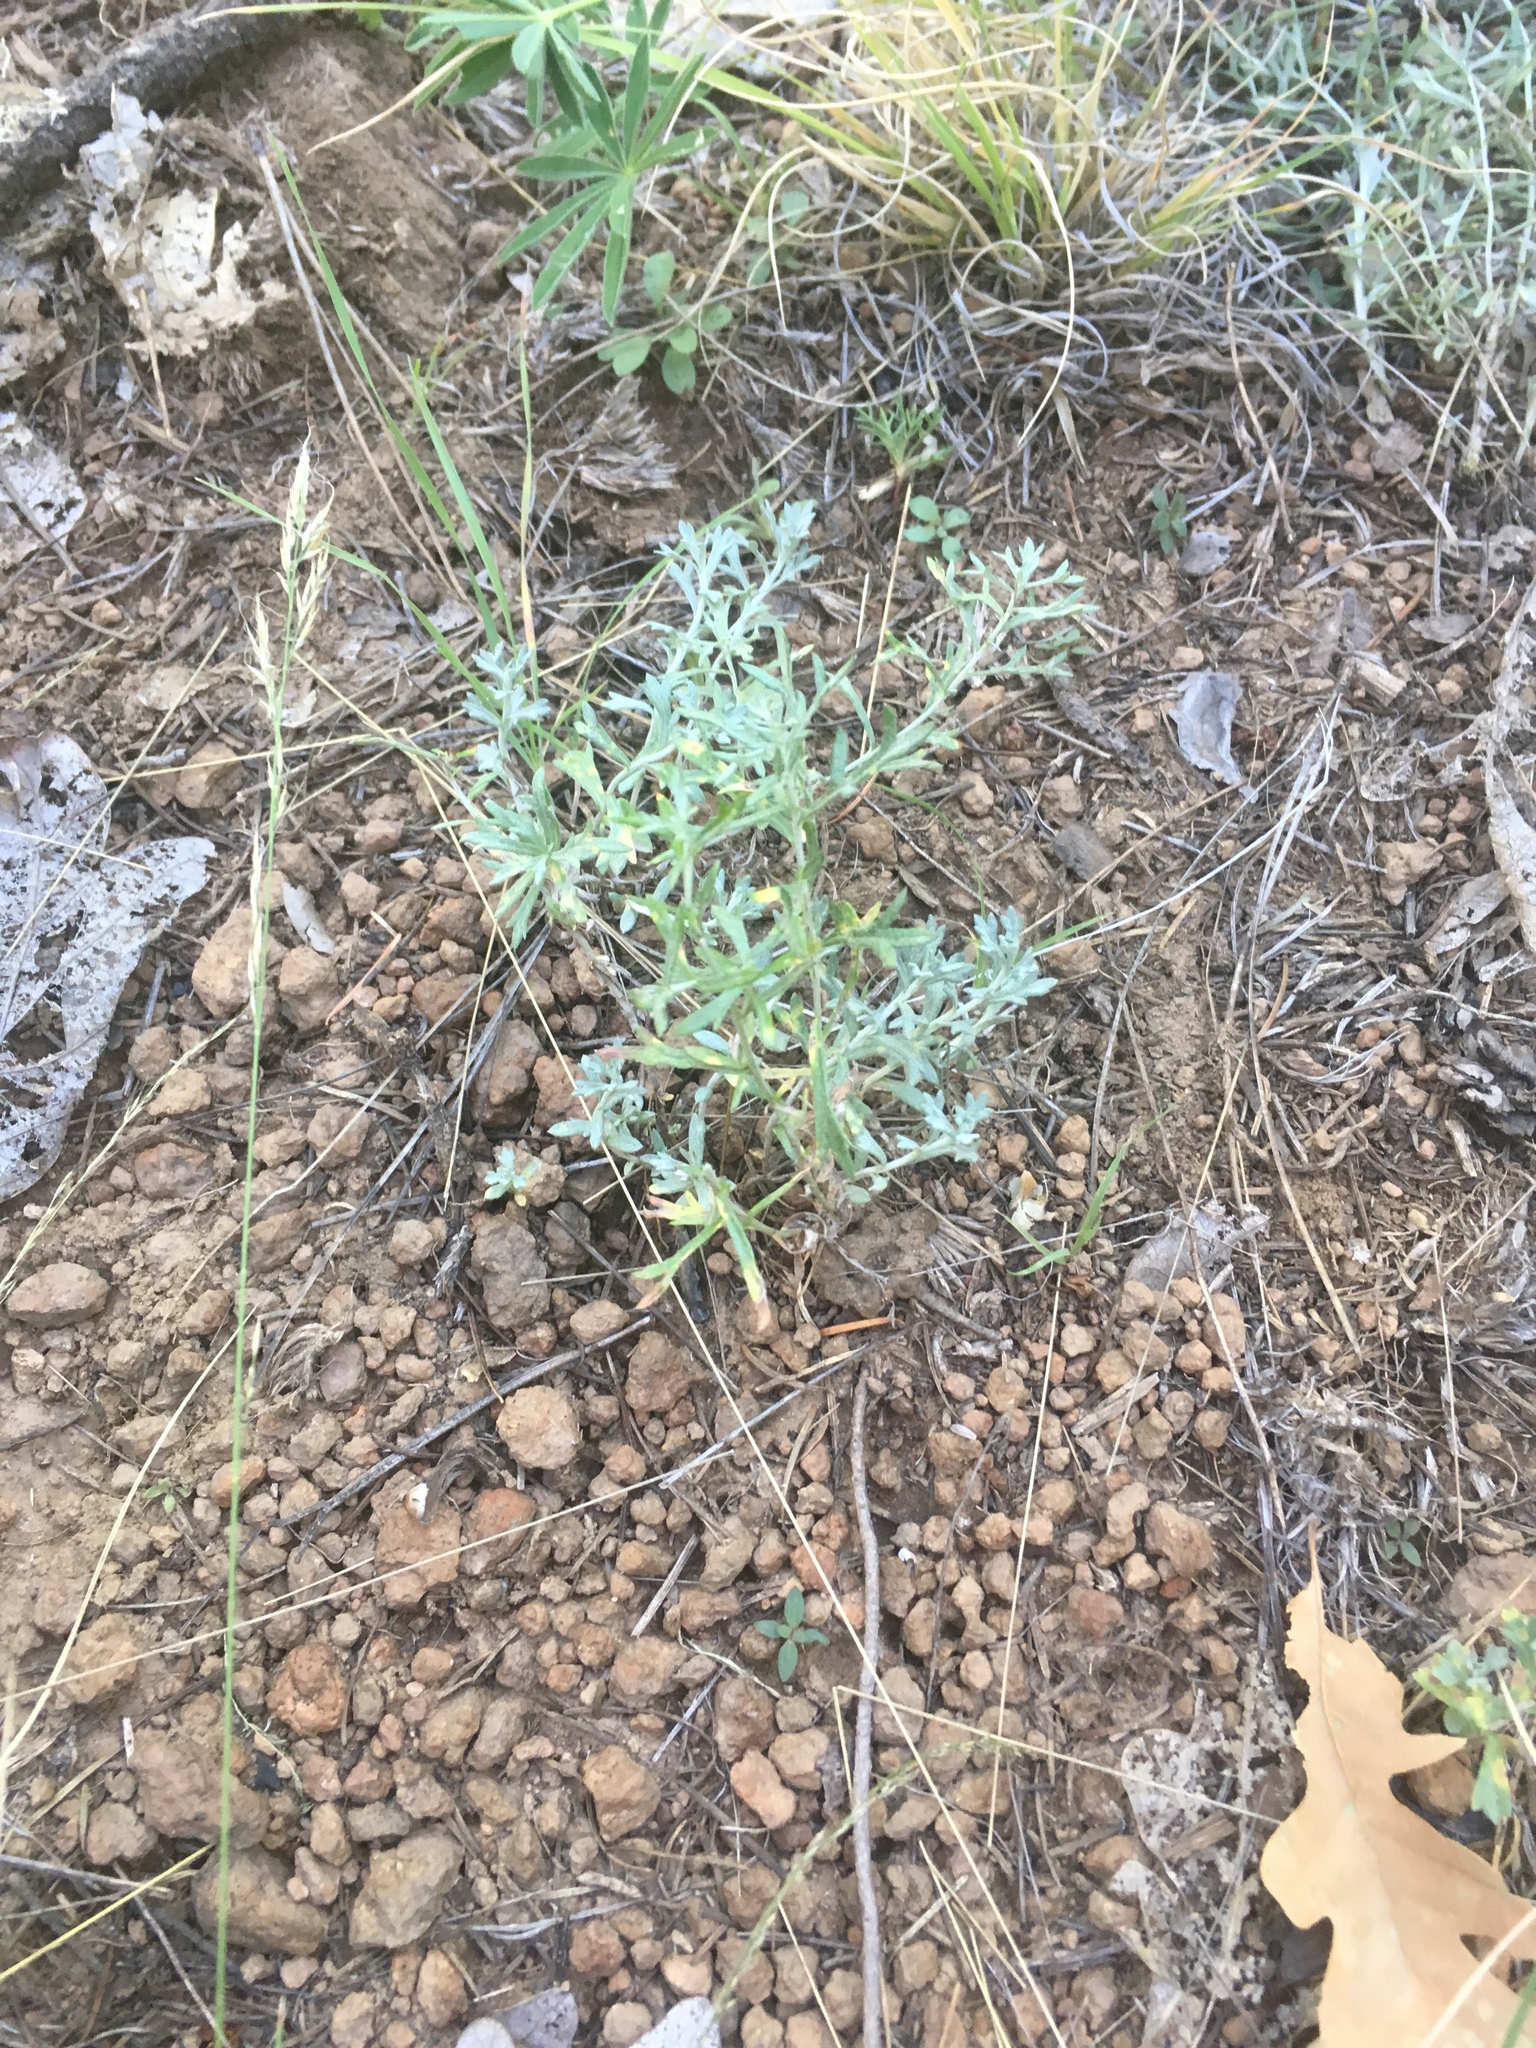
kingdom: Plantae
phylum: Tracheophyta
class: Magnoliopsida
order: Asterales
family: Asteraceae
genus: Artemisia
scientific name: Artemisia ludoviciana
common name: Western mugwort
